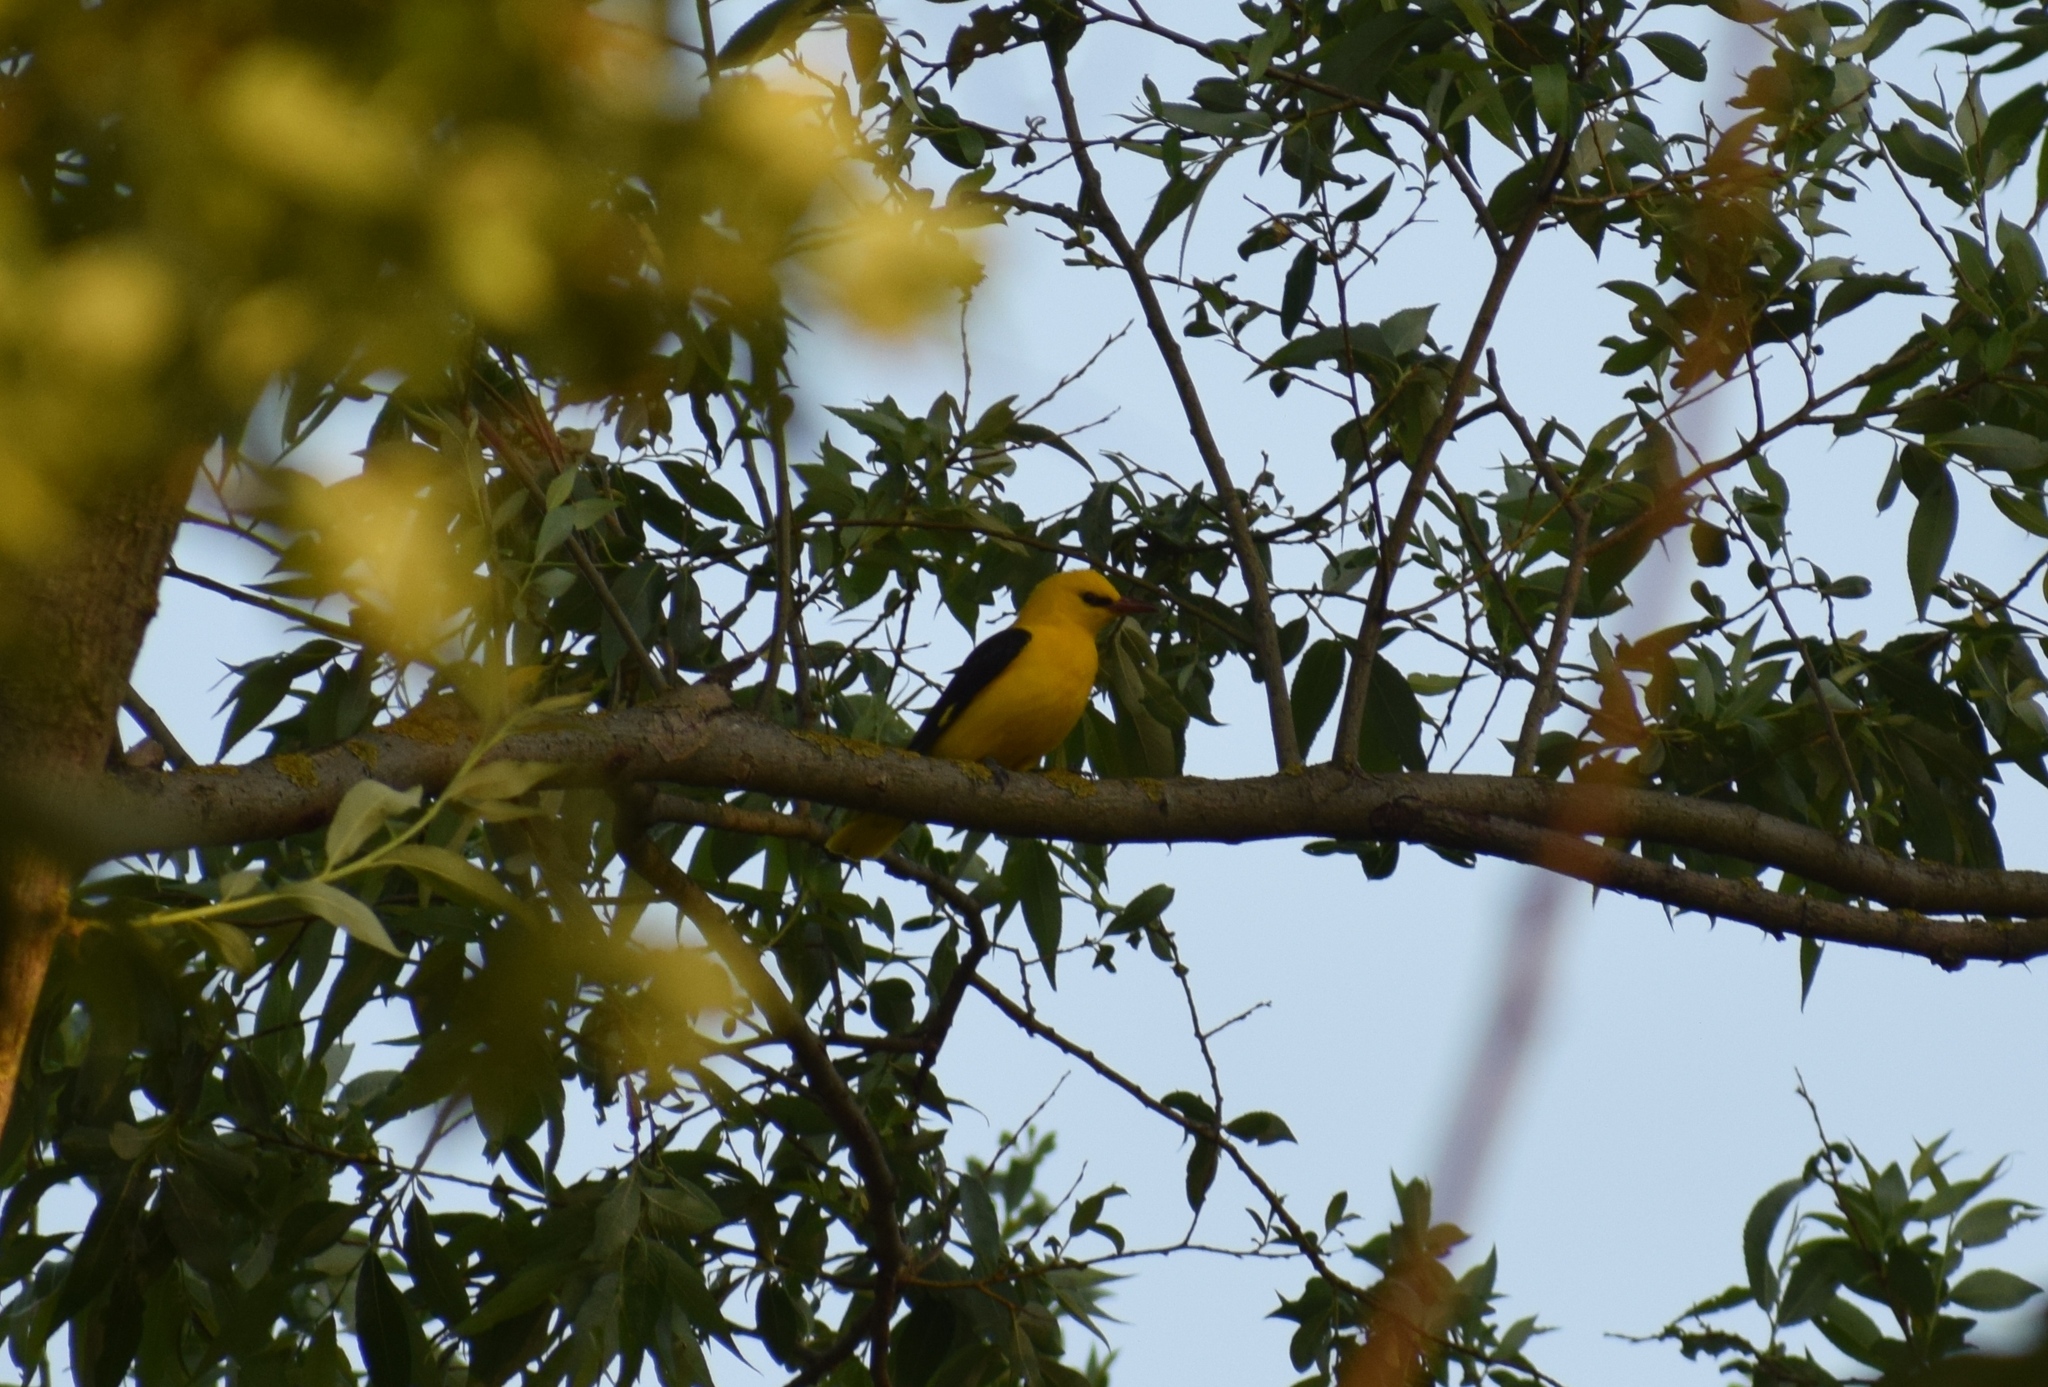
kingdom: Animalia
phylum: Chordata
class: Aves
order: Passeriformes
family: Oriolidae
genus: Oriolus
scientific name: Oriolus oriolus
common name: Eurasian golden oriole
